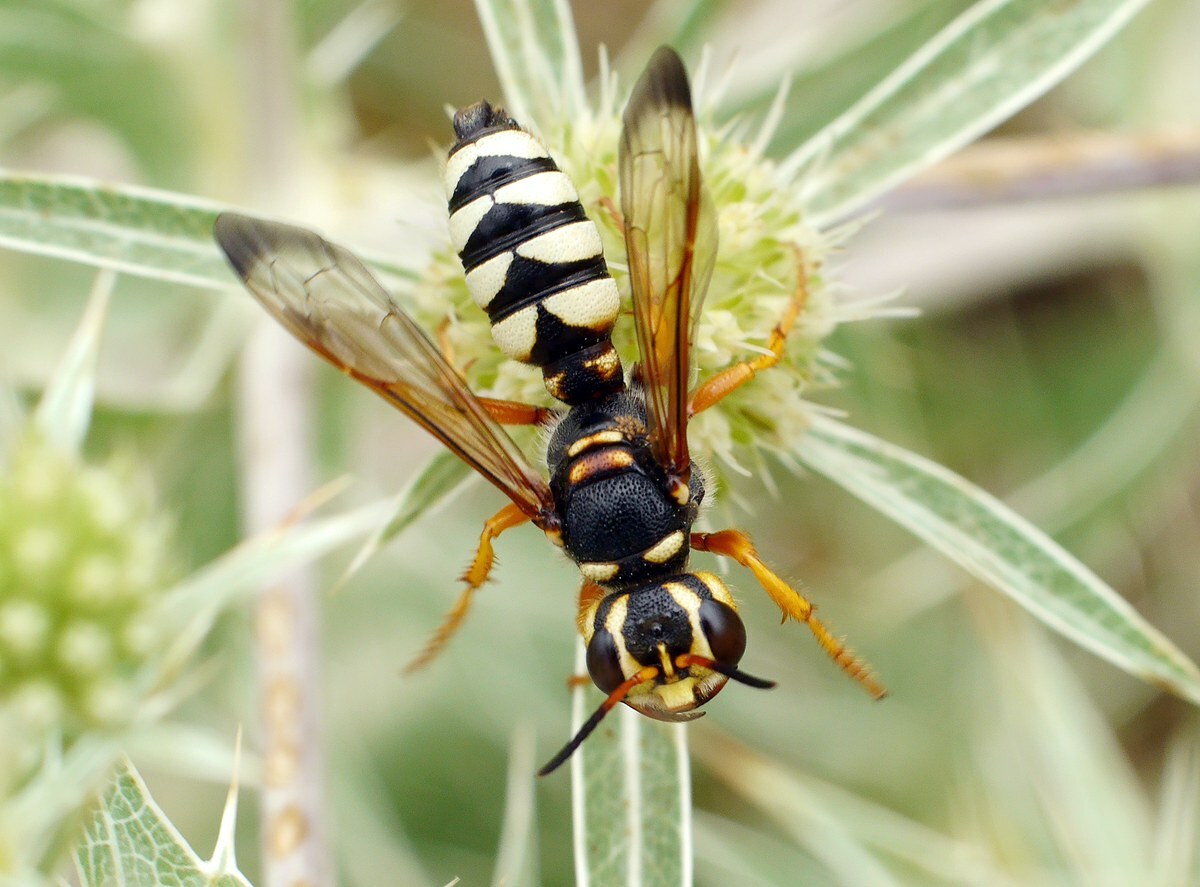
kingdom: Animalia
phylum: Arthropoda
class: Insecta
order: Hymenoptera
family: Crabronidae
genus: Cerceris
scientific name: Cerceris tuberculata
